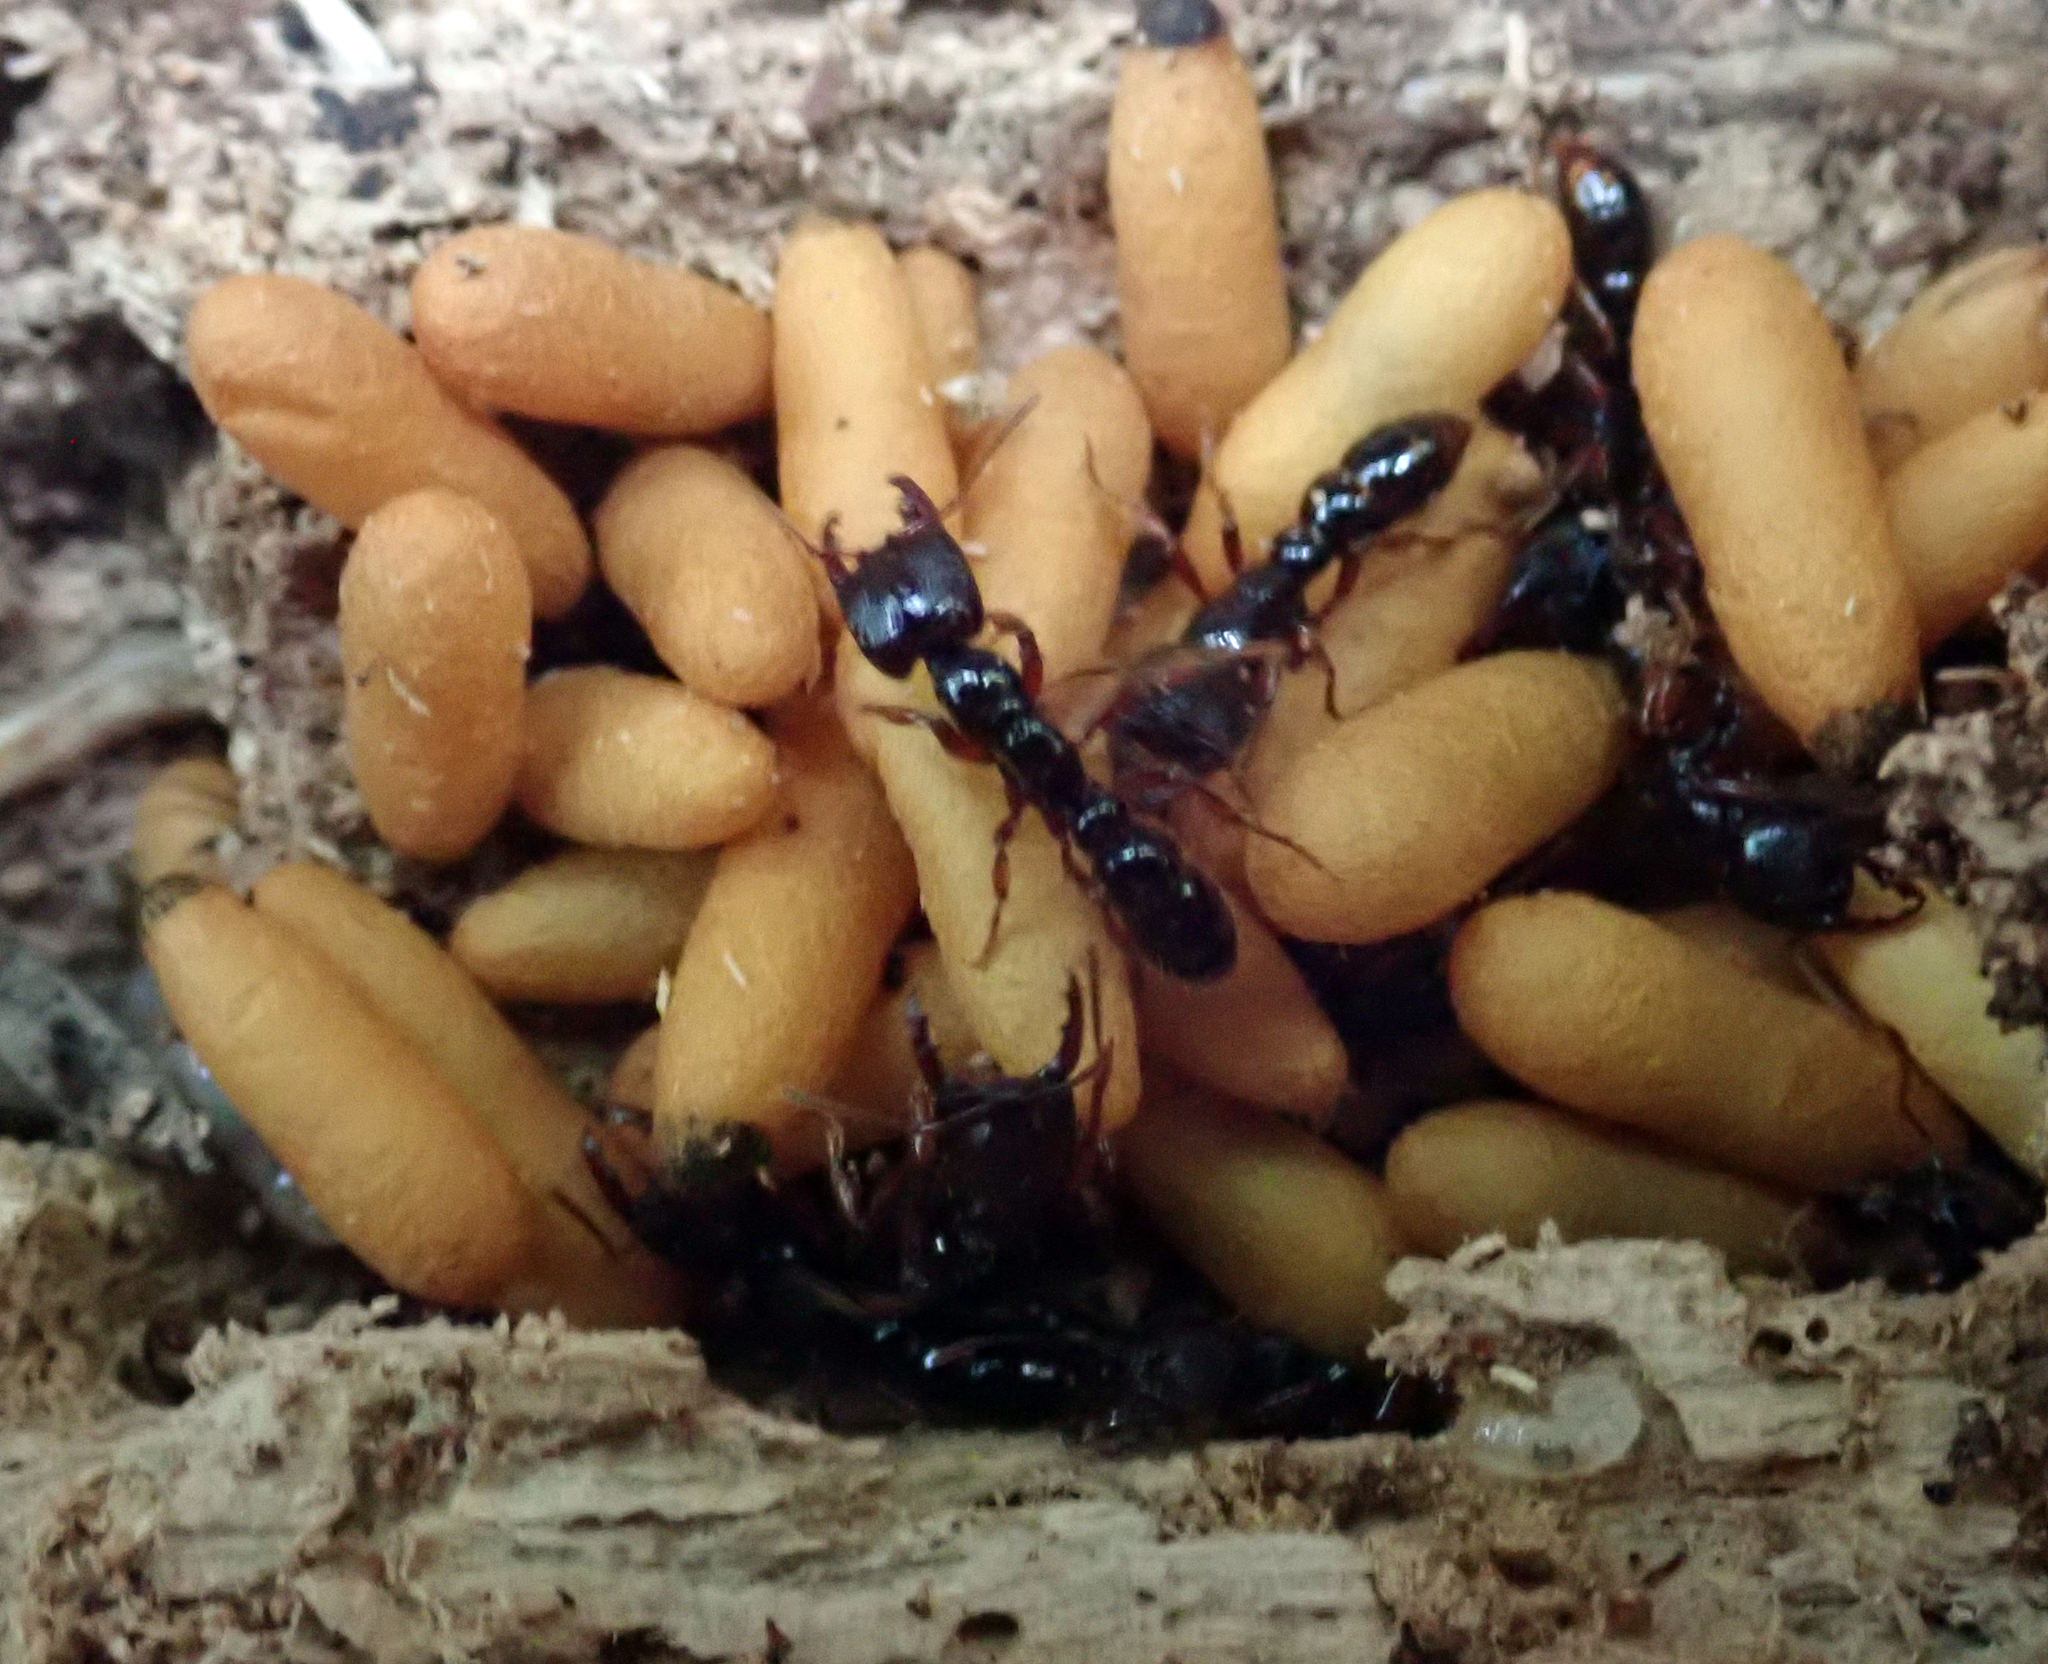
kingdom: Animalia
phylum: Arthropoda
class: Insecta
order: Hymenoptera
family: Formicidae
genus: Amblyopone
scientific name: Amblyopone australis
